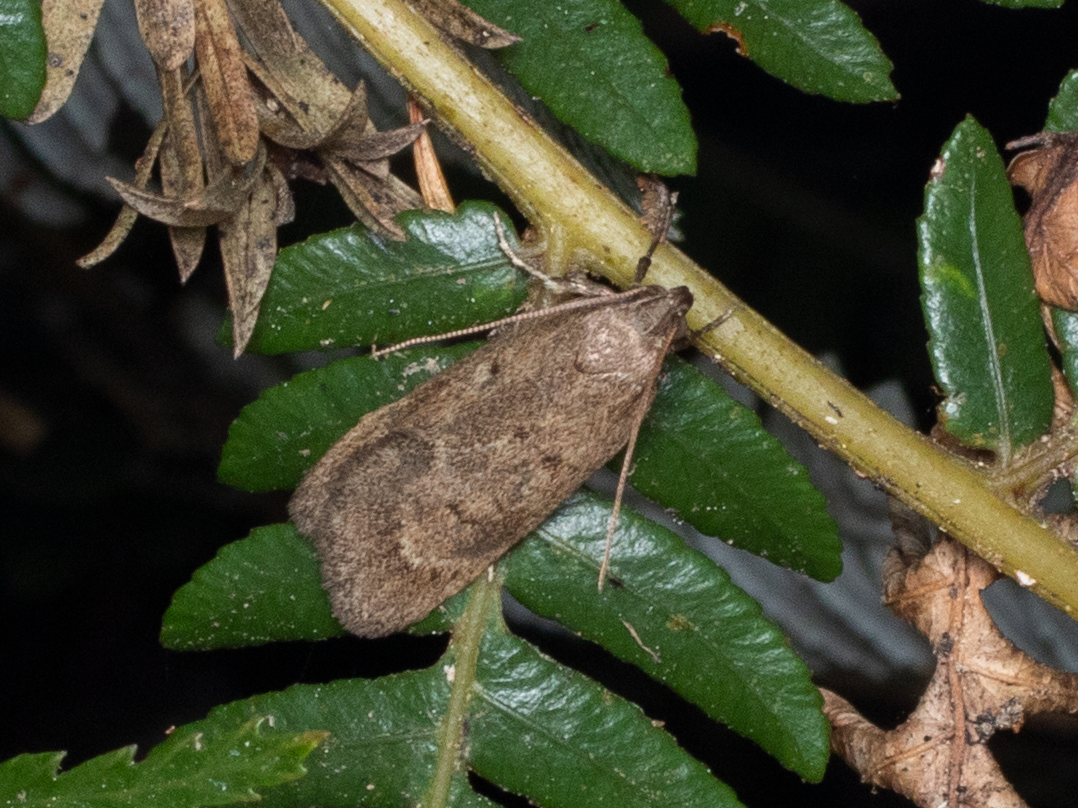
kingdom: Animalia
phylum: Arthropoda
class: Insecta
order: Lepidoptera
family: Depressariidae
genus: Phaeosaces
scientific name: Phaeosaces apocrypta
